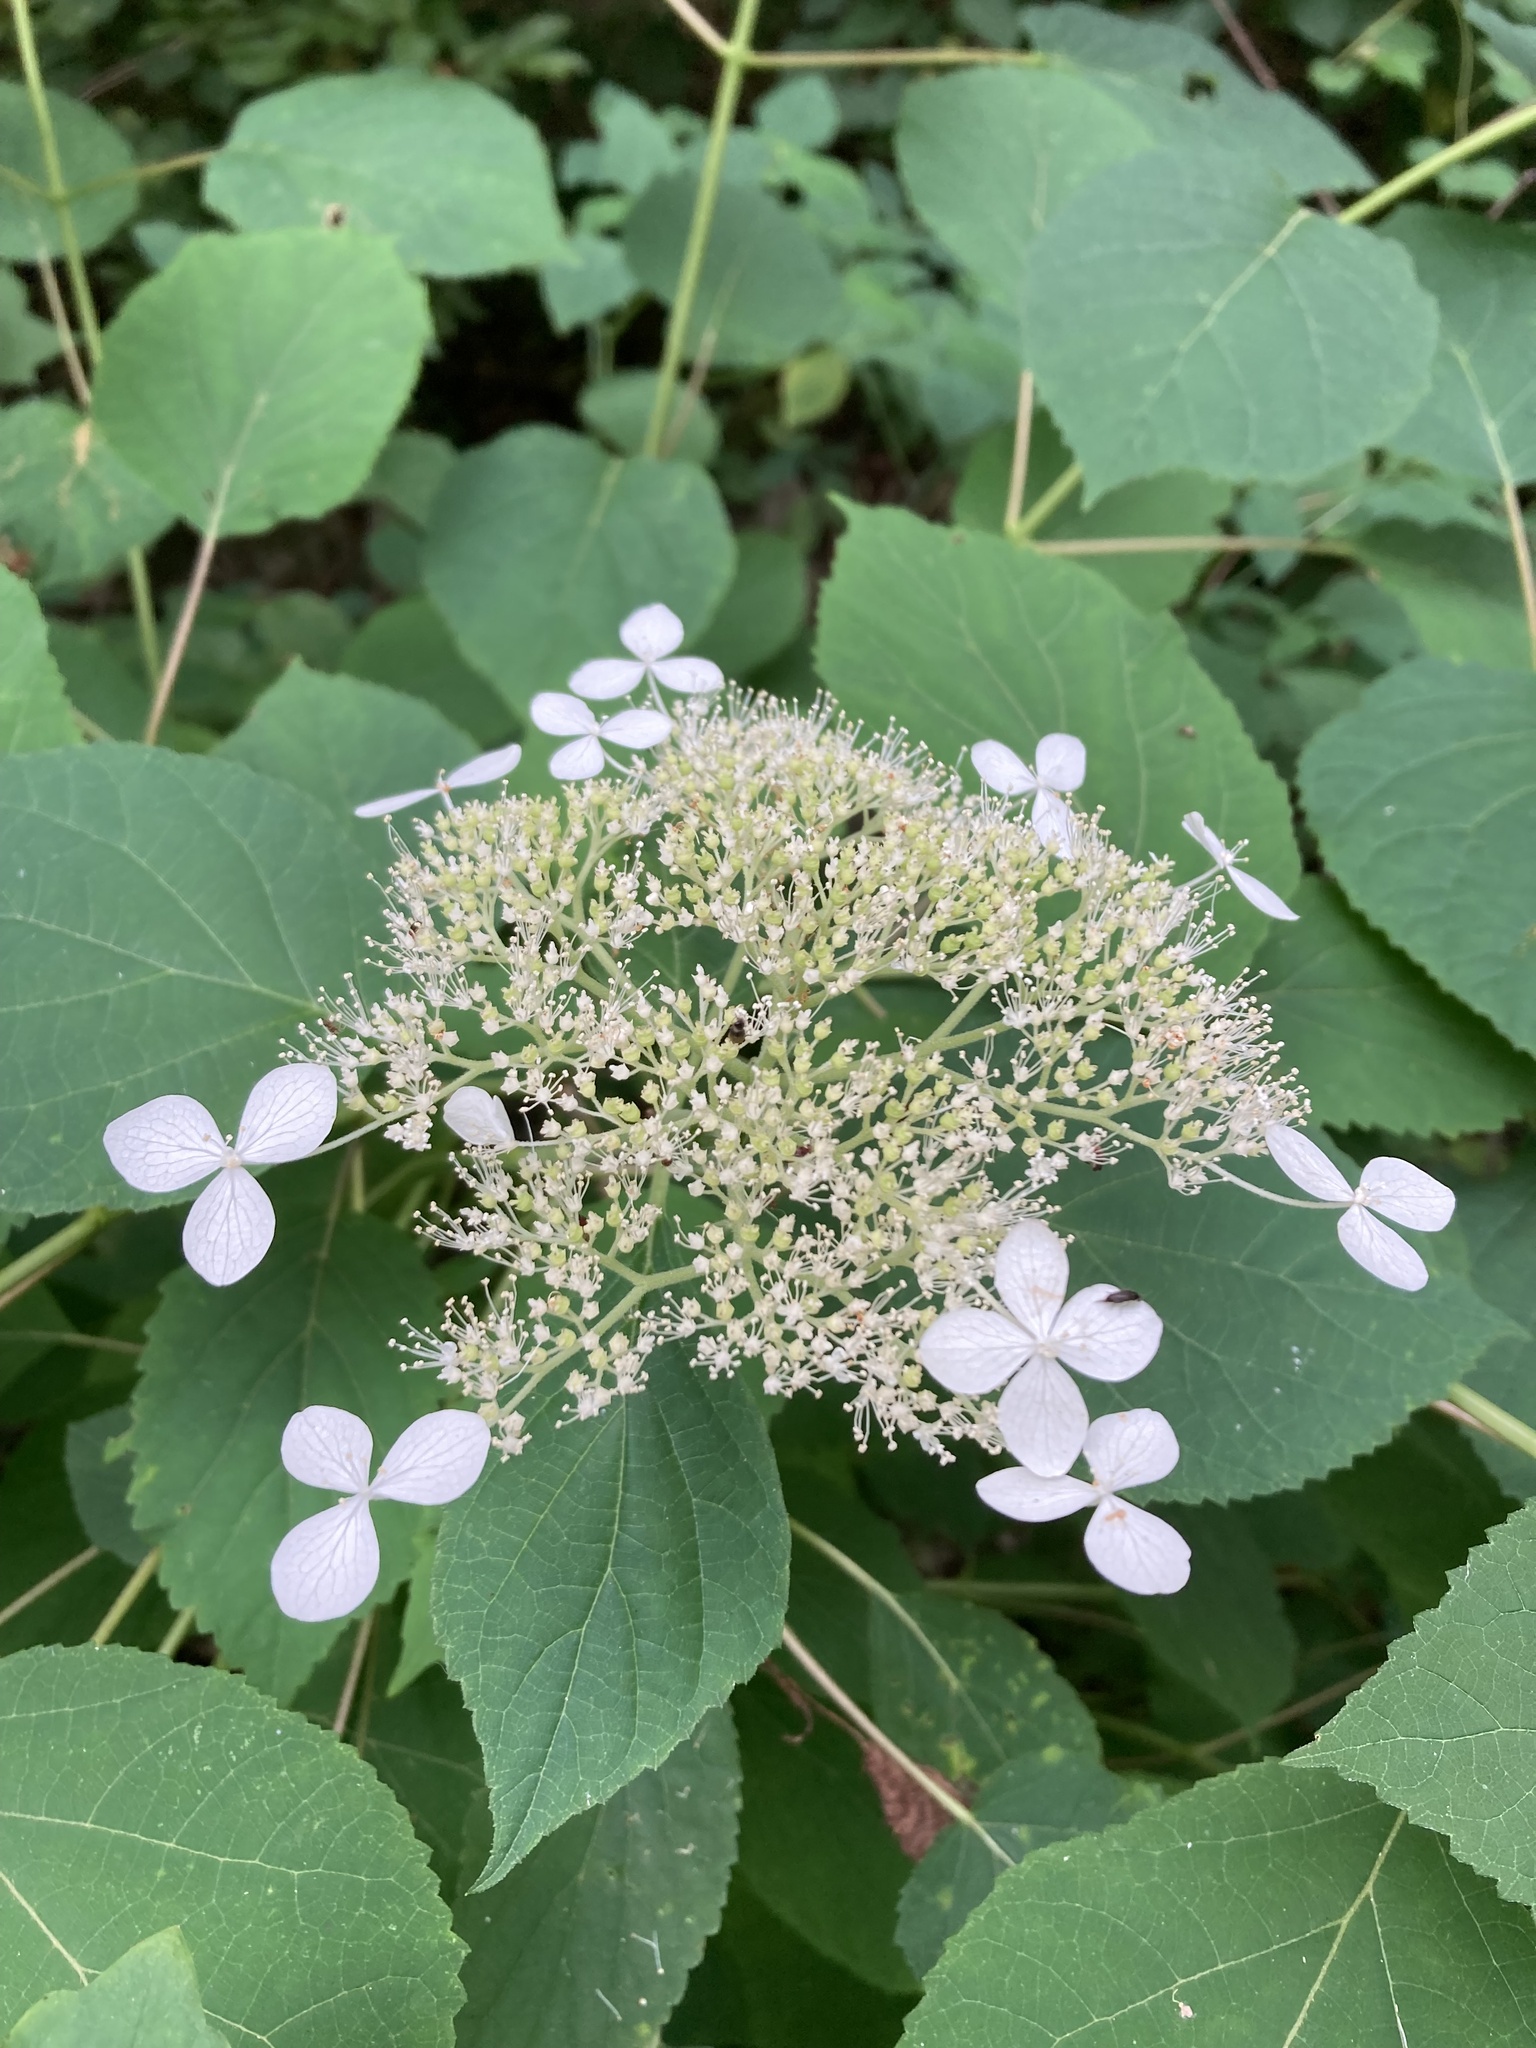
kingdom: Plantae
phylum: Tracheophyta
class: Magnoliopsida
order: Cornales
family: Hydrangeaceae
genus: Hydrangea
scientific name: Hydrangea arborescens
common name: Sevenbark
